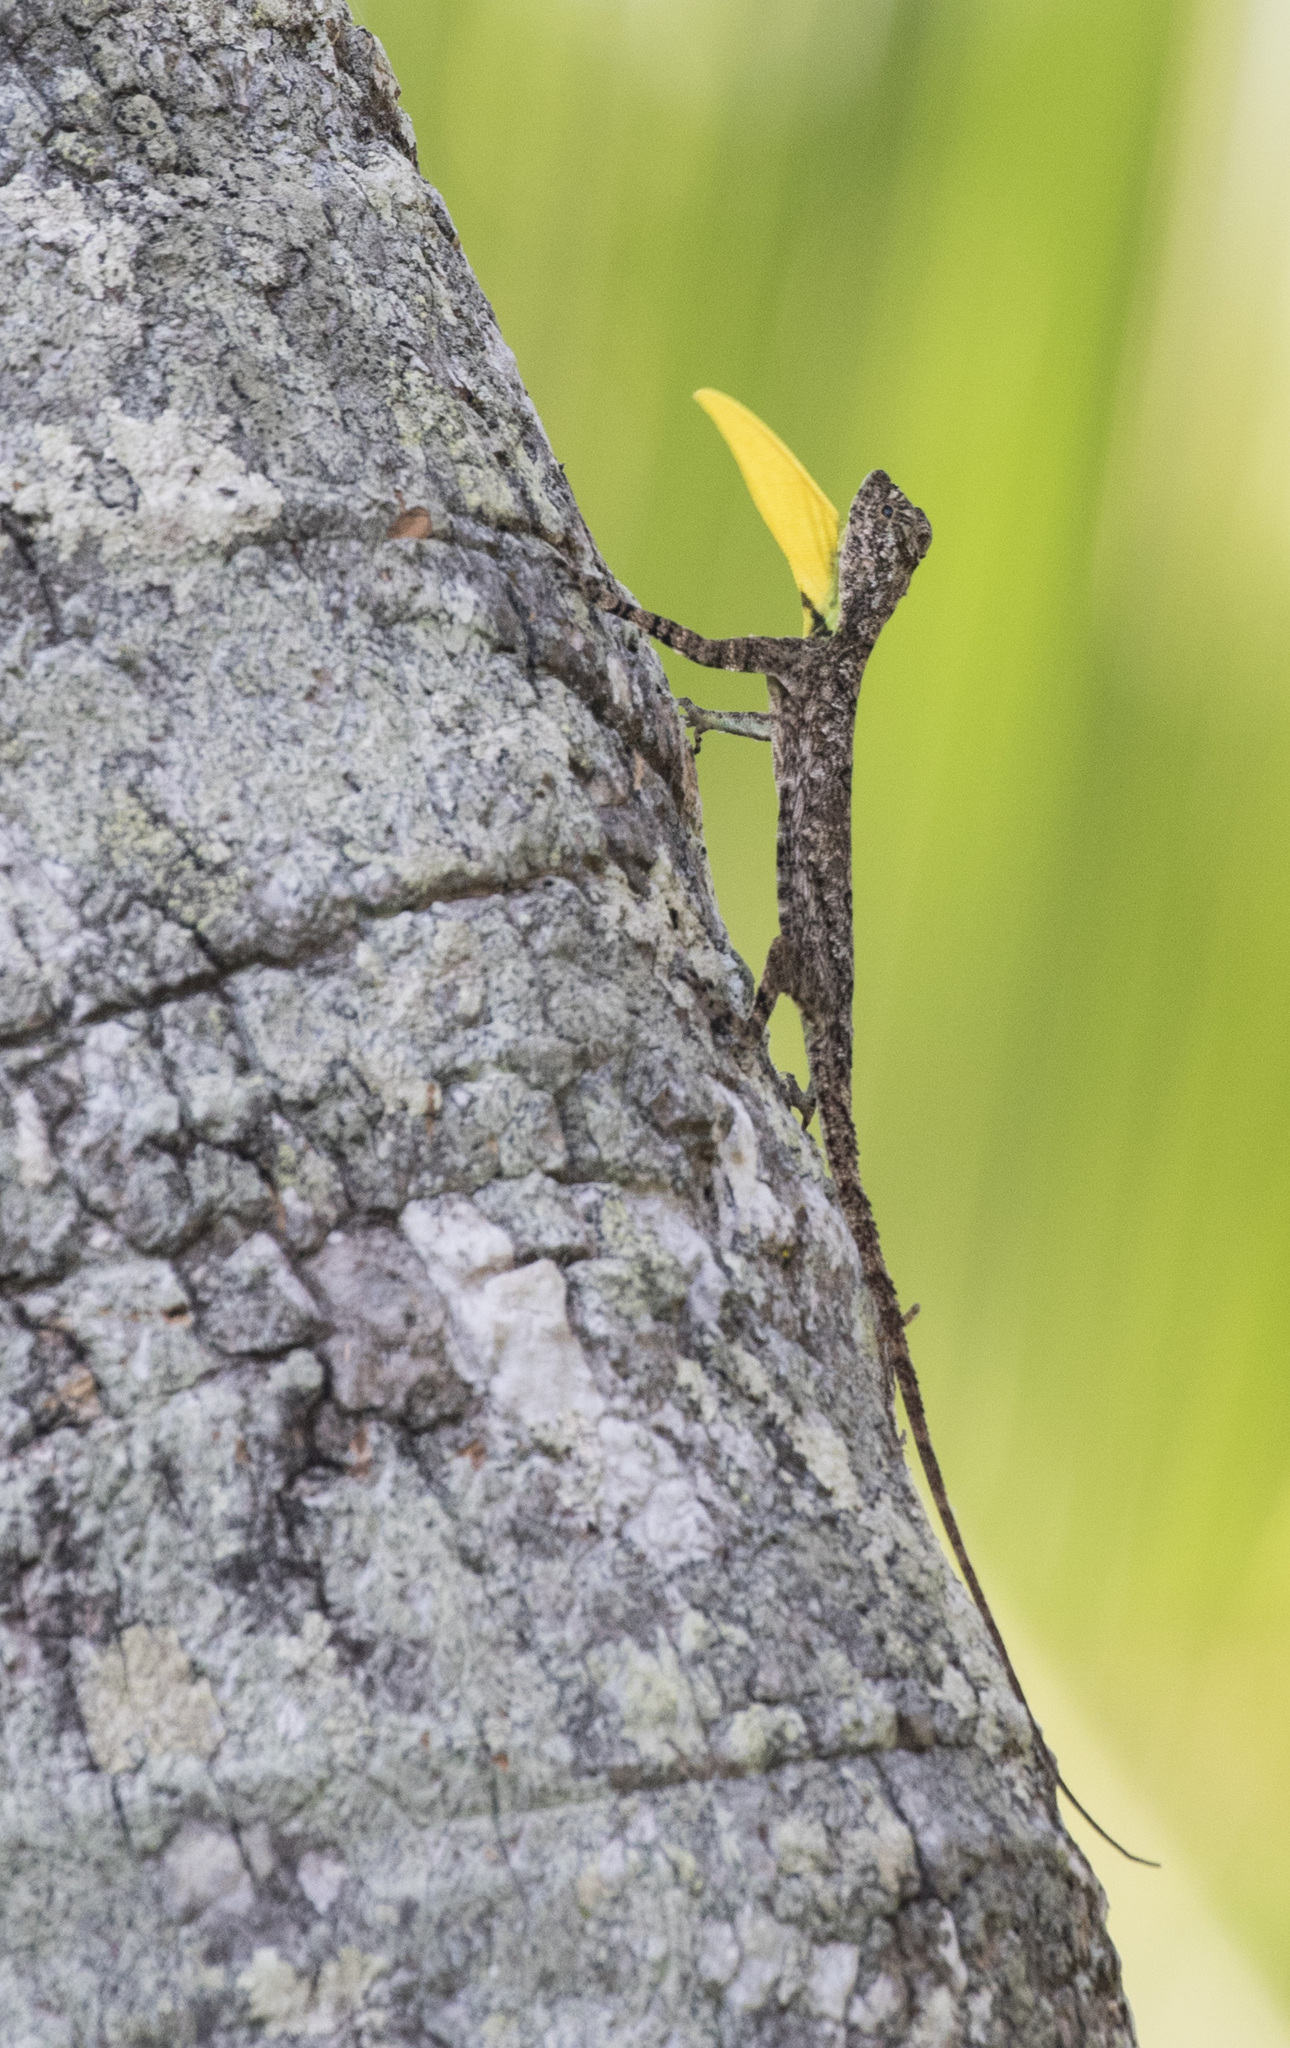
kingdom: Animalia
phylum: Chordata
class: Squamata
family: Agamidae
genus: Draco
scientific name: Draco dussumieri
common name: Southern flying lizard
